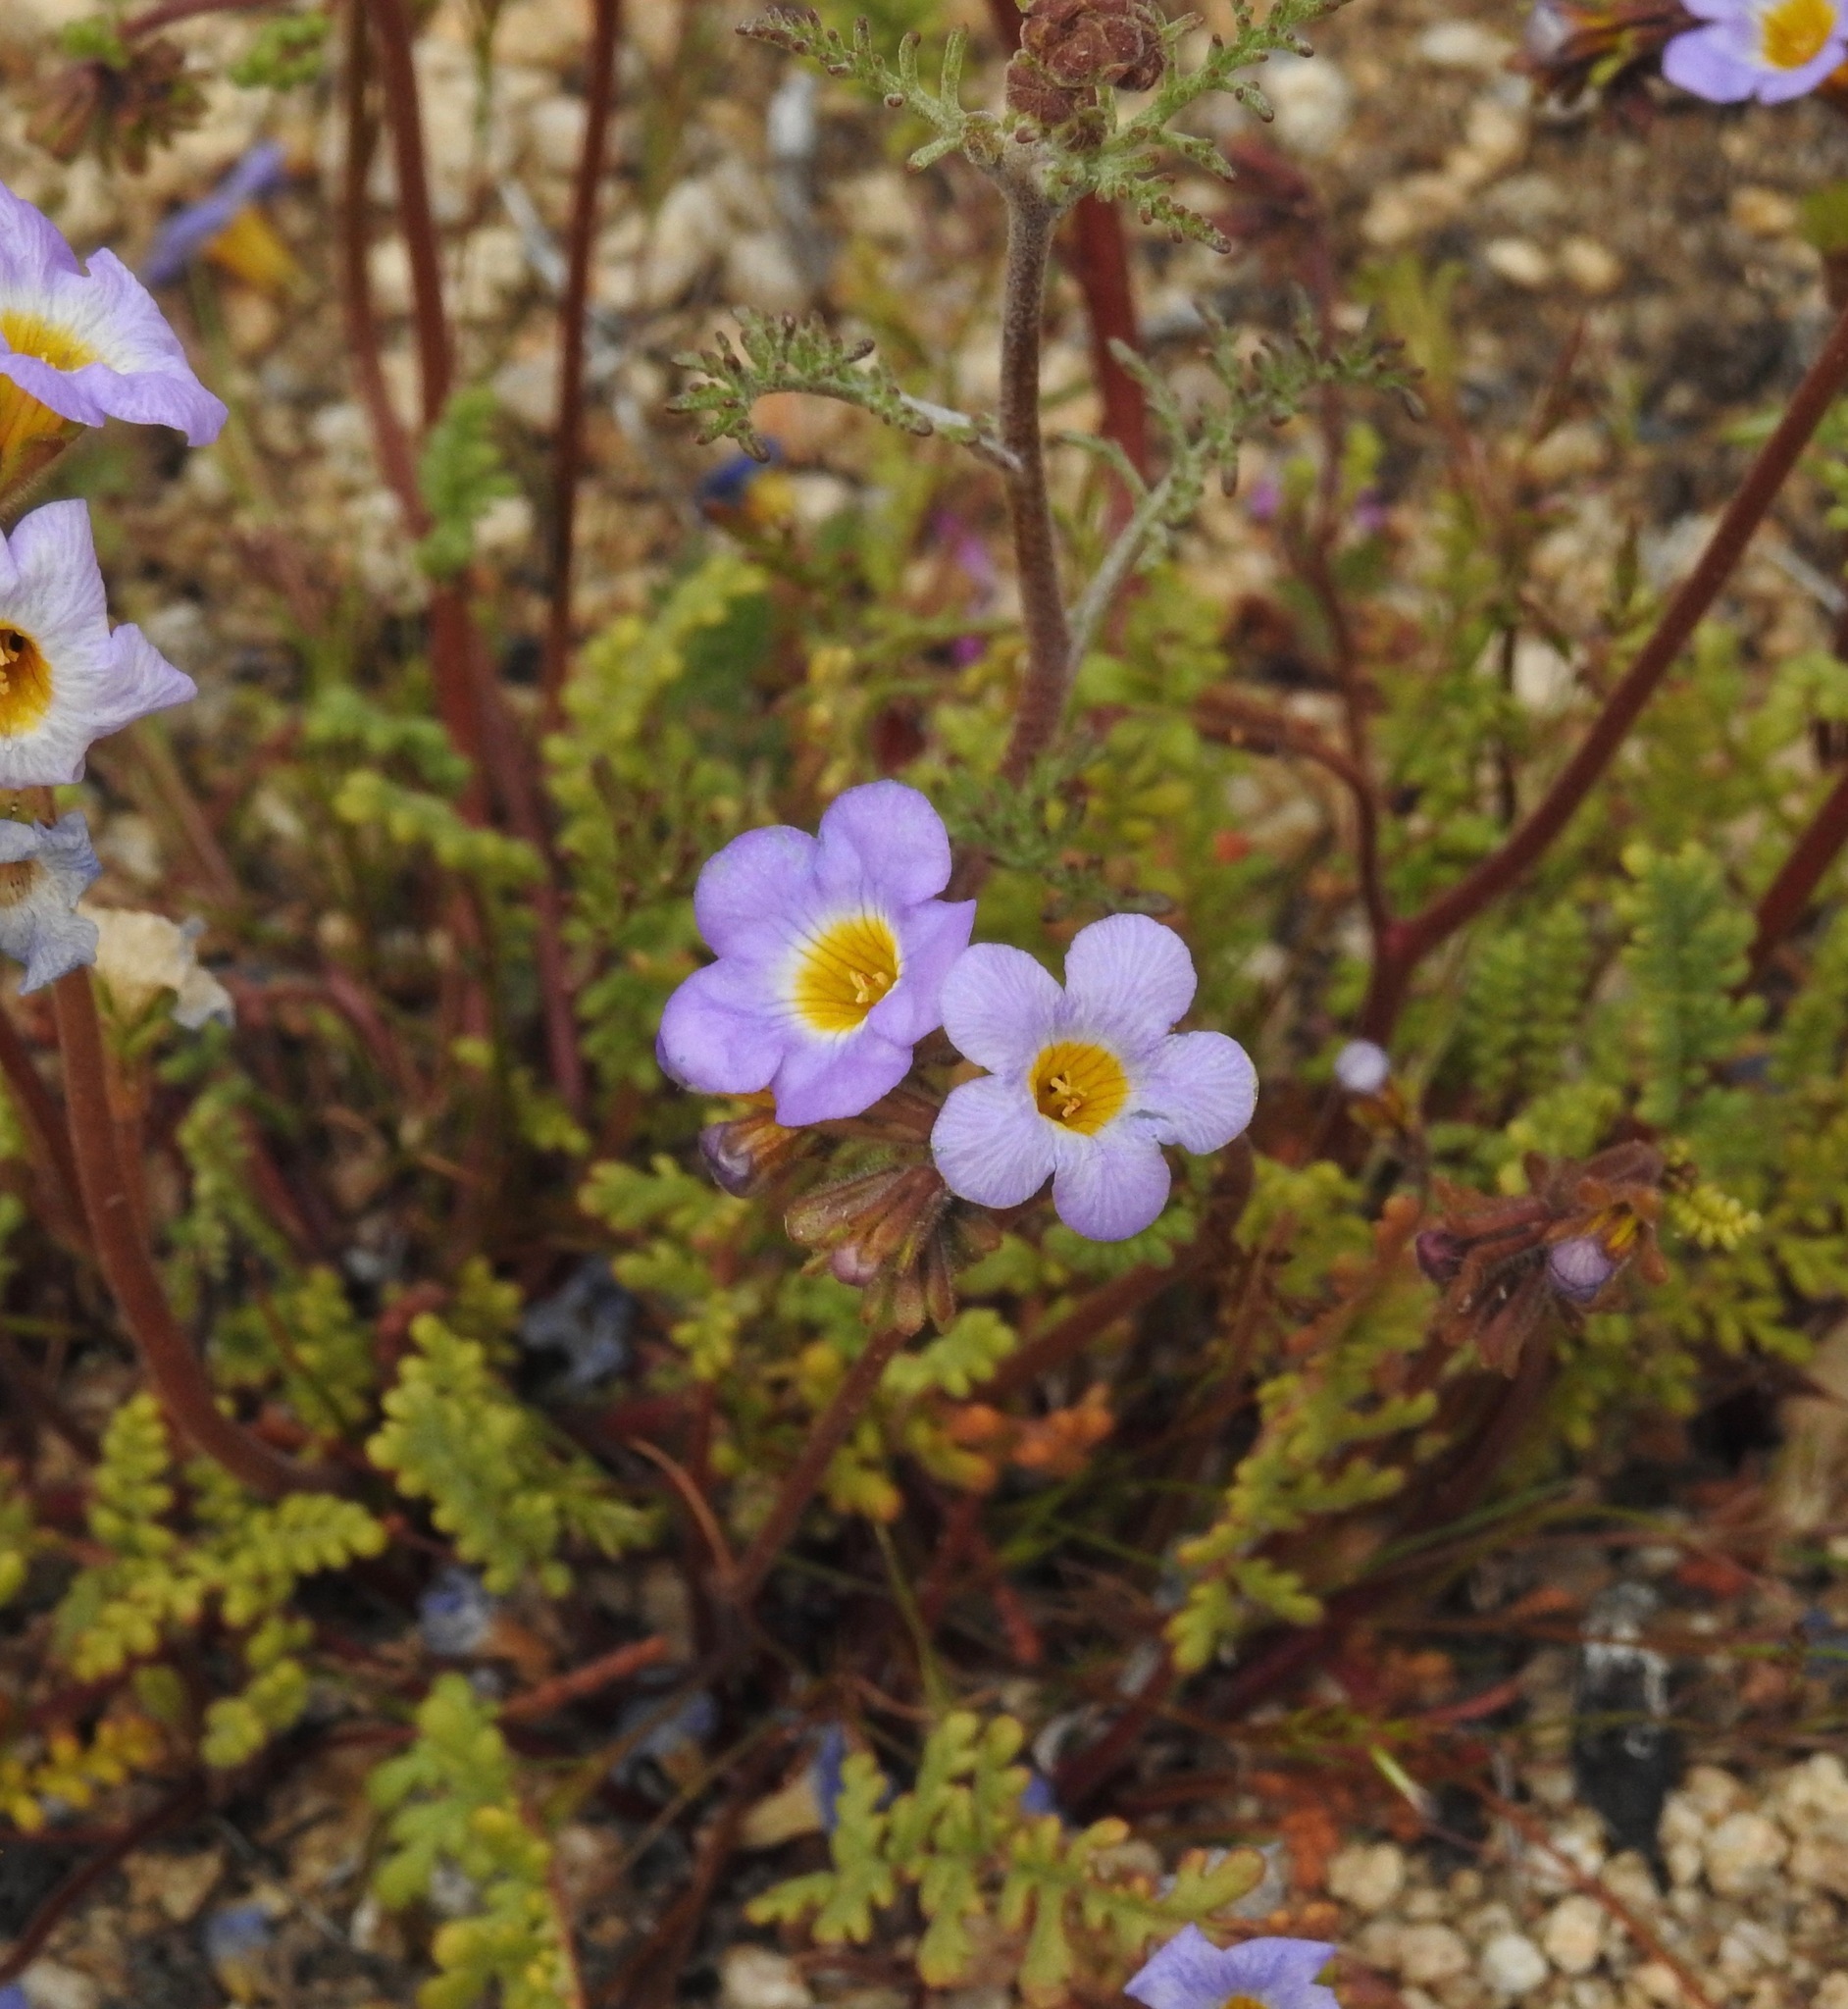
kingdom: Plantae
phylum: Tracheophyta
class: Magnoliopsida
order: Boraginales
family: Hydrophyllaceae
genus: Phacelia
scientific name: Phacelia fremontii
